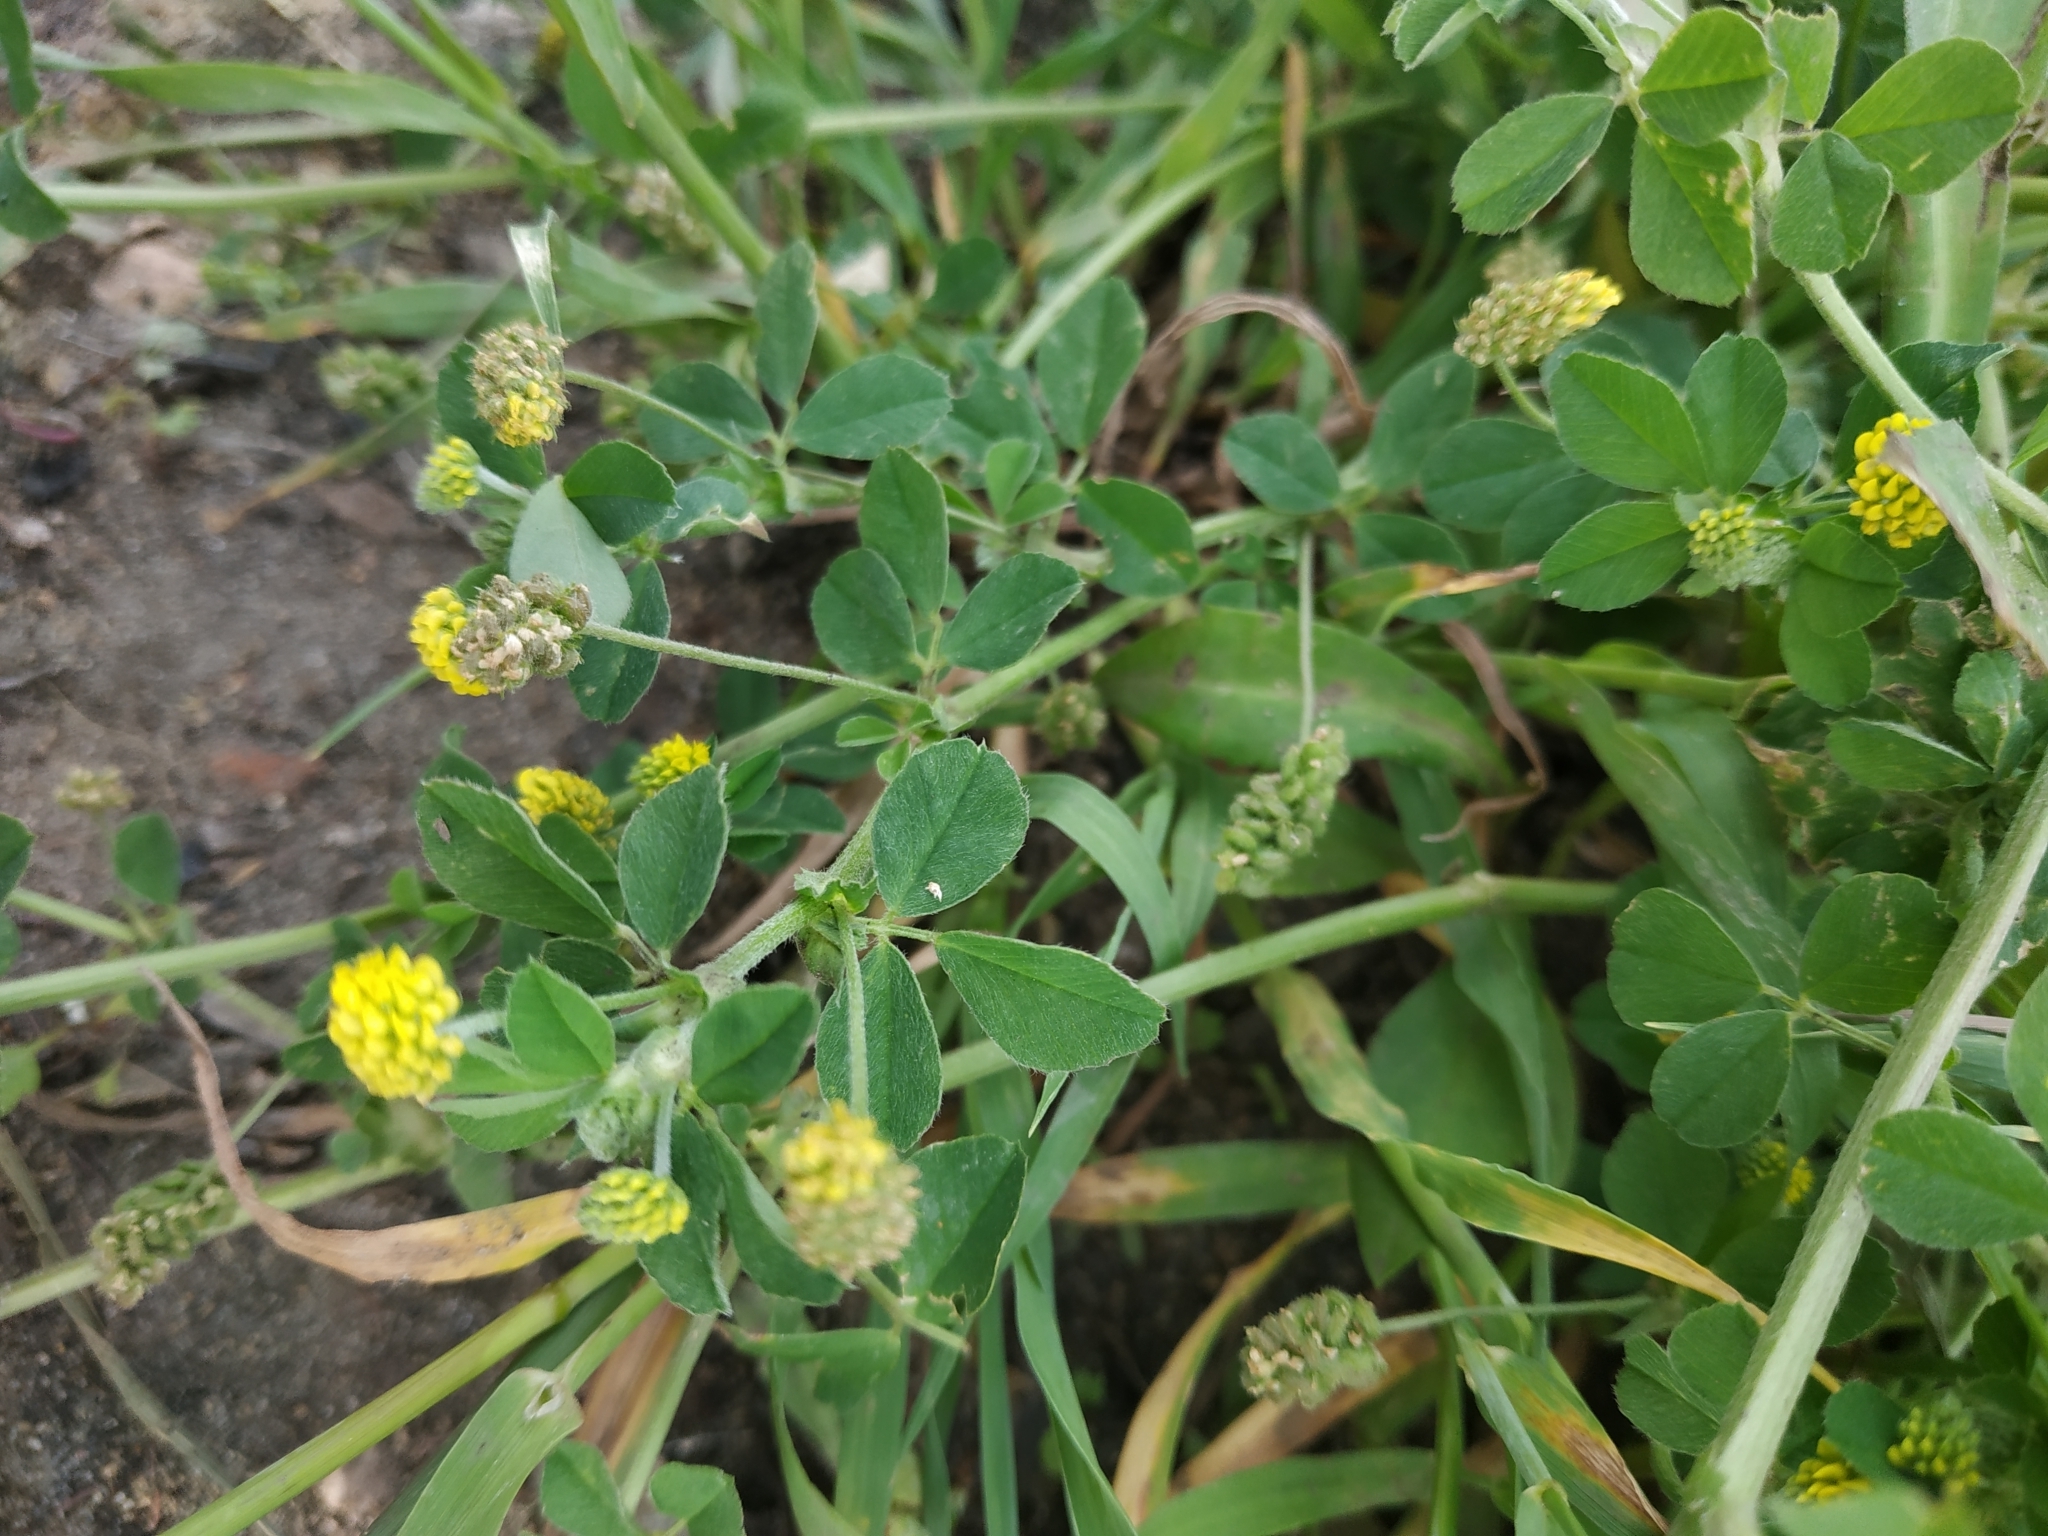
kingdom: Plantae
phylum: Tracheophyta
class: Magnoliopsida
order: Fabales
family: Fabaceae
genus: Medicago
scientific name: Medicago lupulina
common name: Black medick
